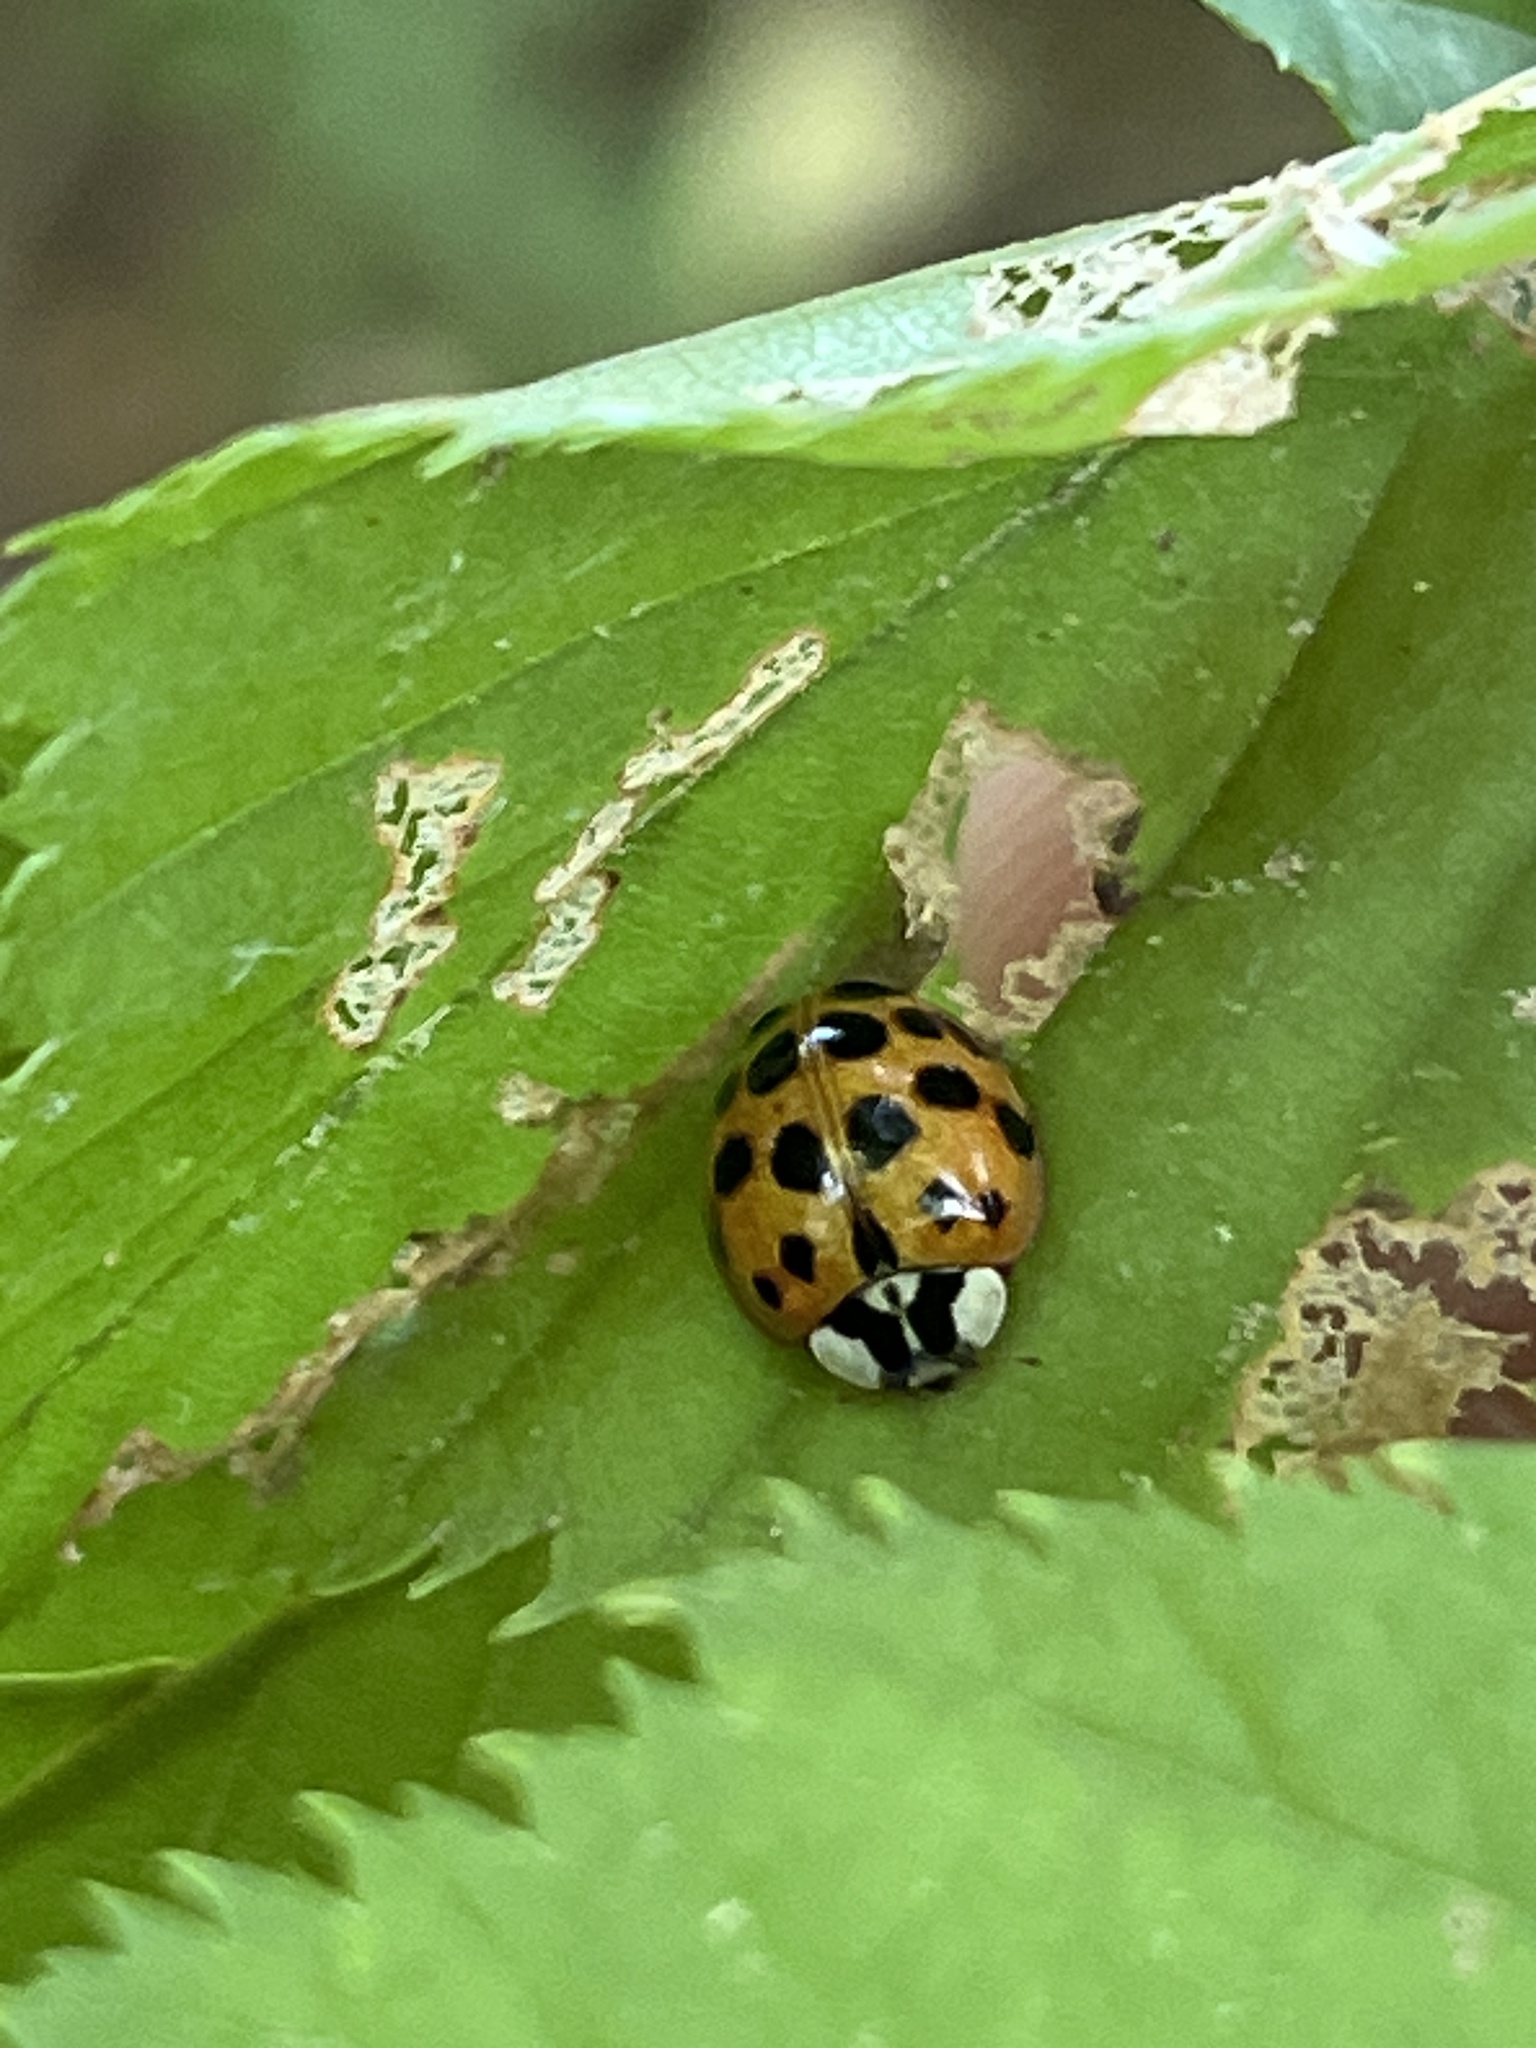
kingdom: Animalia
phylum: Arthropoda
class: Insecta
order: Coleoptera
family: Coccinellidae
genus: Harmonia
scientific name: Harmonia axyridis
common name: Harlequin ladybird
